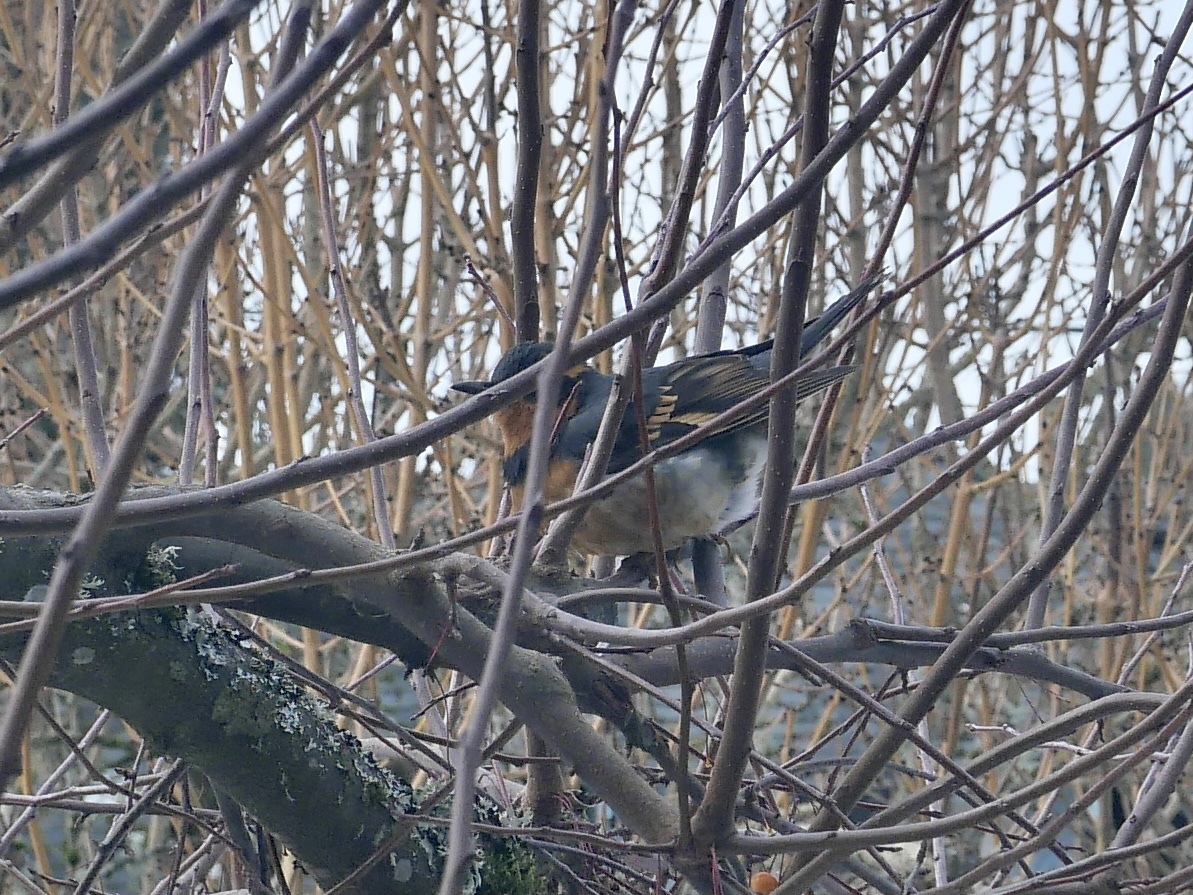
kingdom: Animalia
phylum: Chordata
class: Aves
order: Passeriformes
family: Turdidae
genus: Ixoreus
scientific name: Ixoreus naevius
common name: Varied thrush
